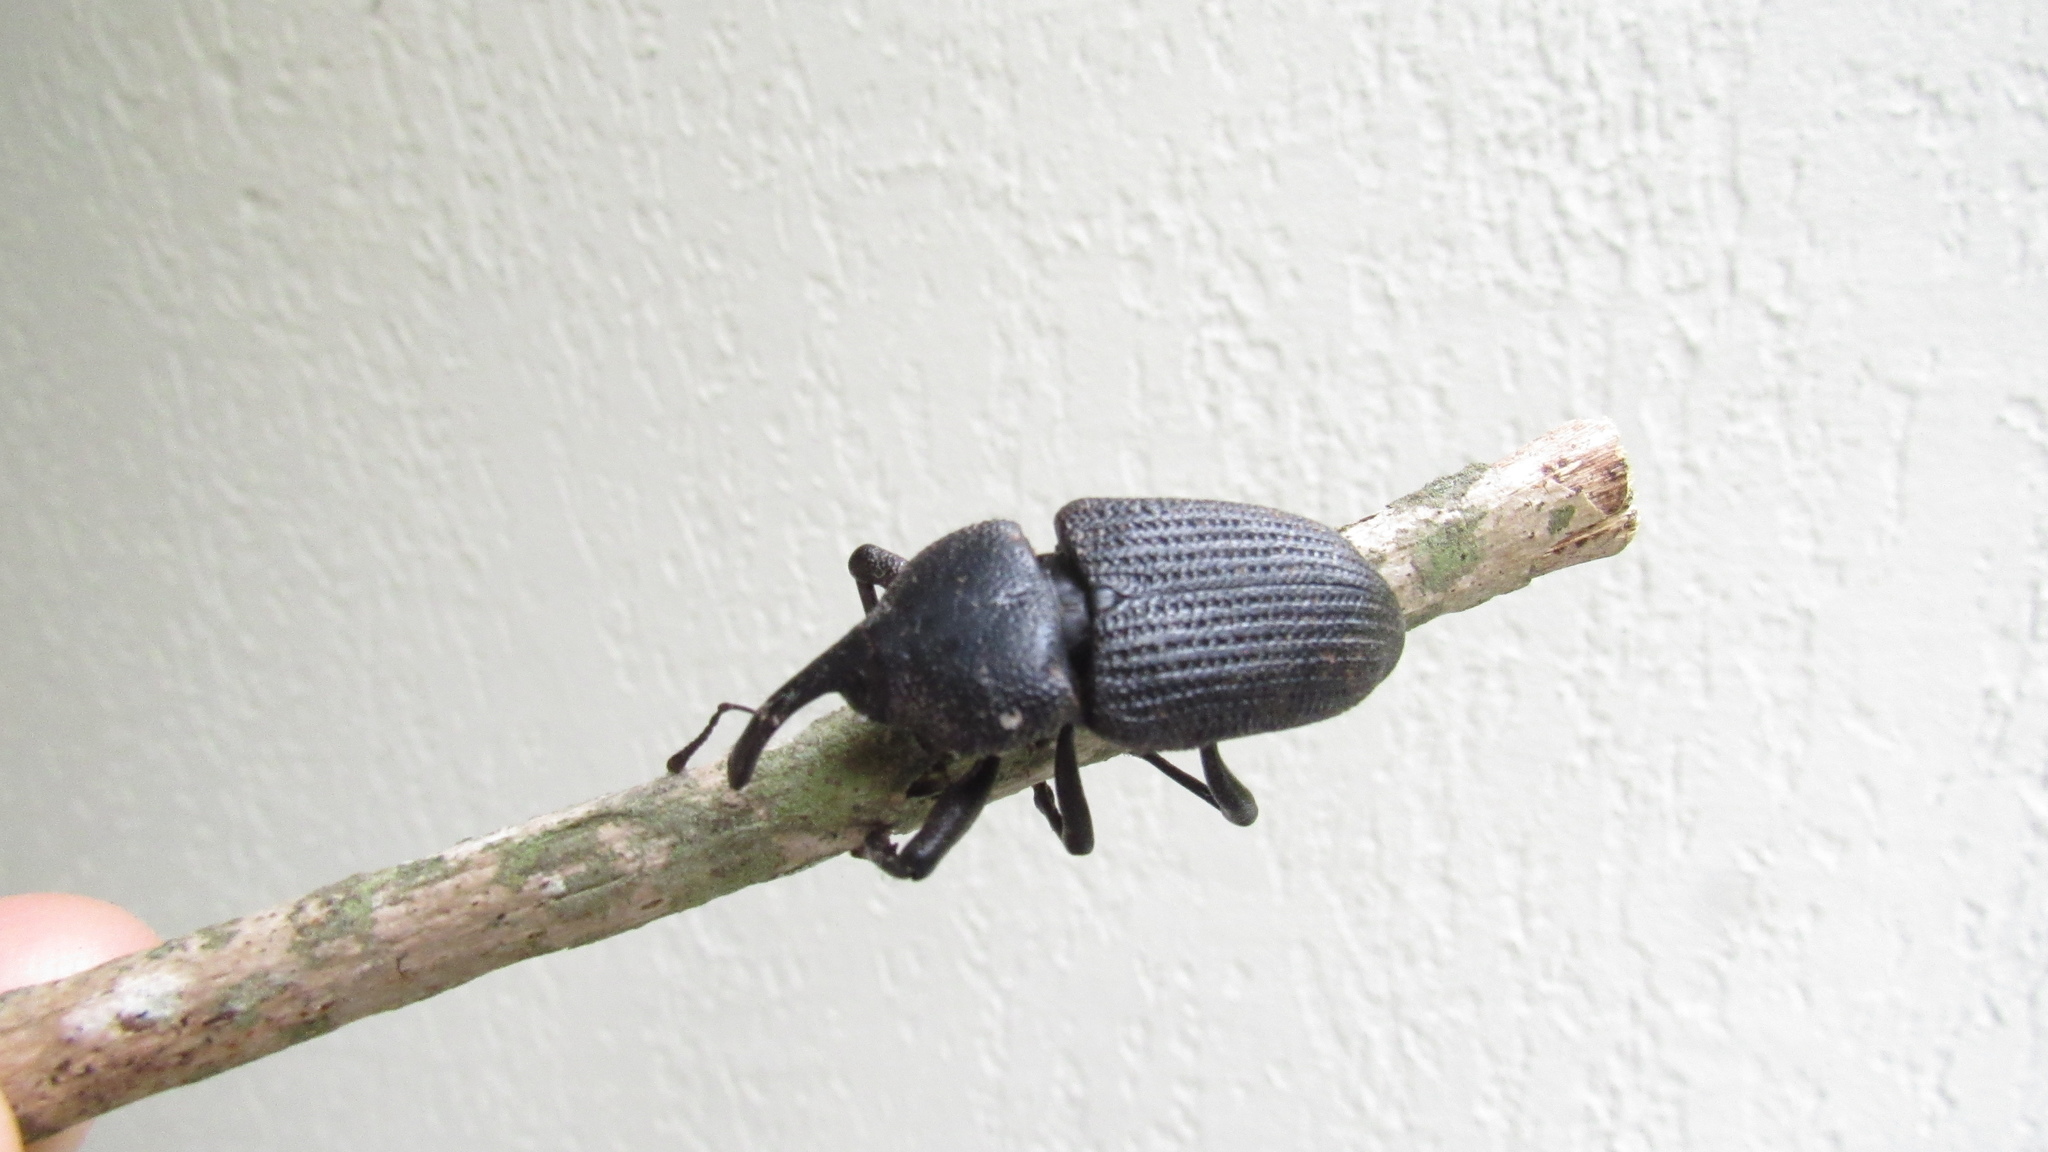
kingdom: Animalia
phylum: Arthropoda
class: Insecta
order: Coleoptera
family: Curculionidae
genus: Homalinotus
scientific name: Homalinotus coriaceus
